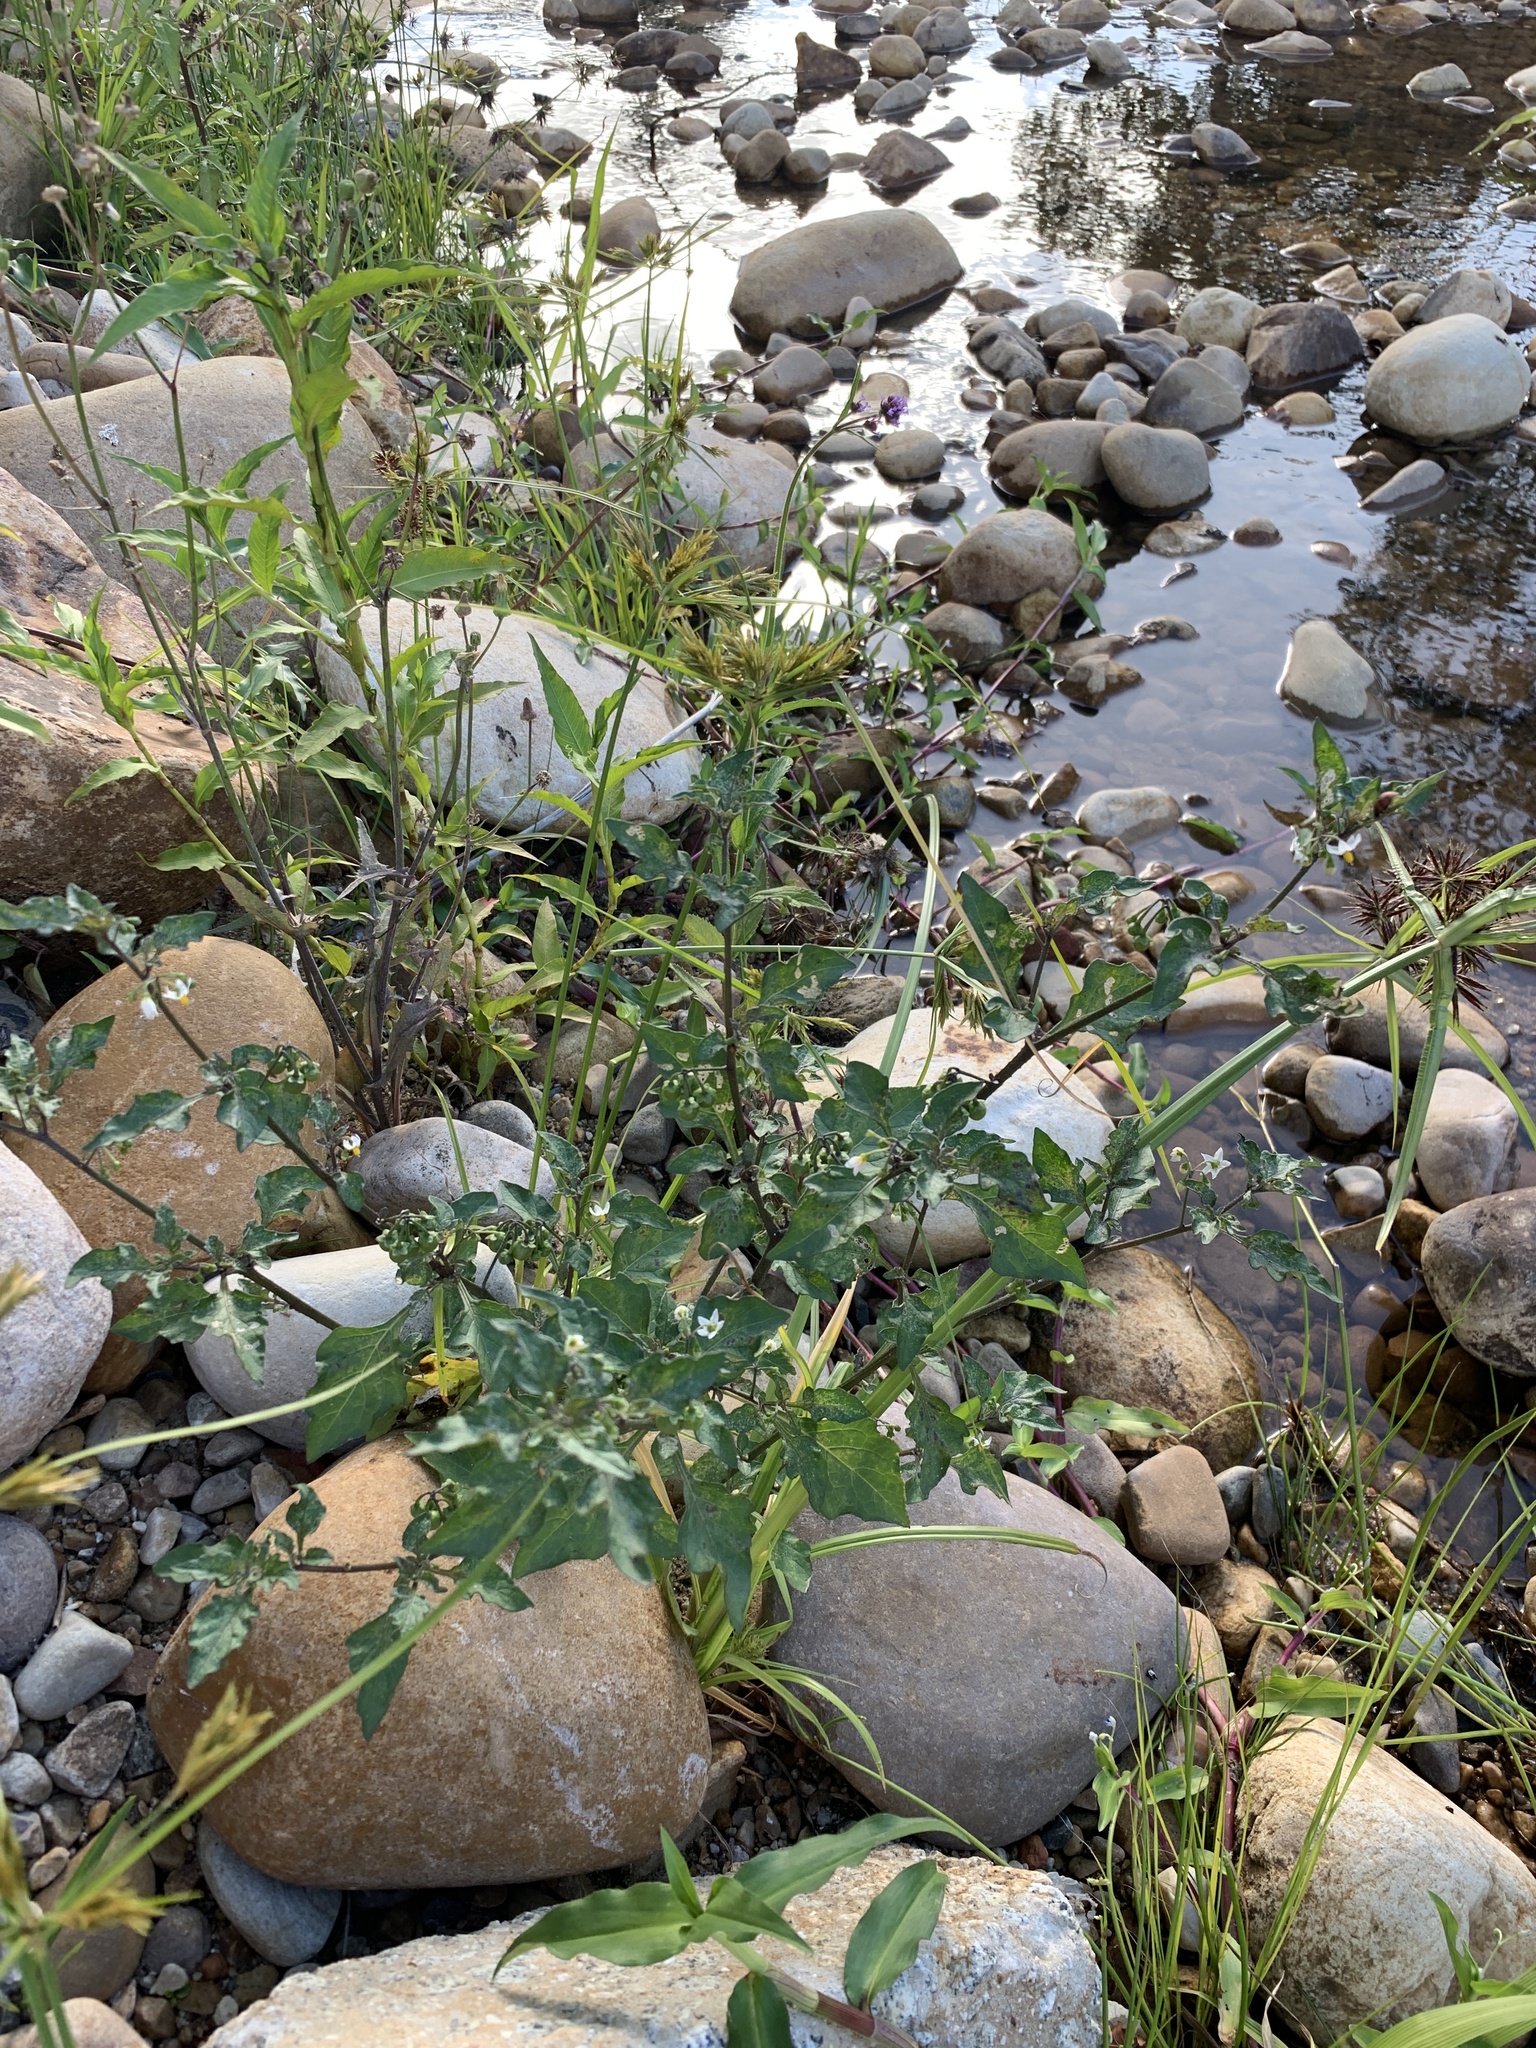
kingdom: Plantae
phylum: Tracheophyta
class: Magnoliopsida
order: Solanales
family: Solanaceae
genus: Solanum
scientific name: Solanum nigrum
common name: Black nightshade
